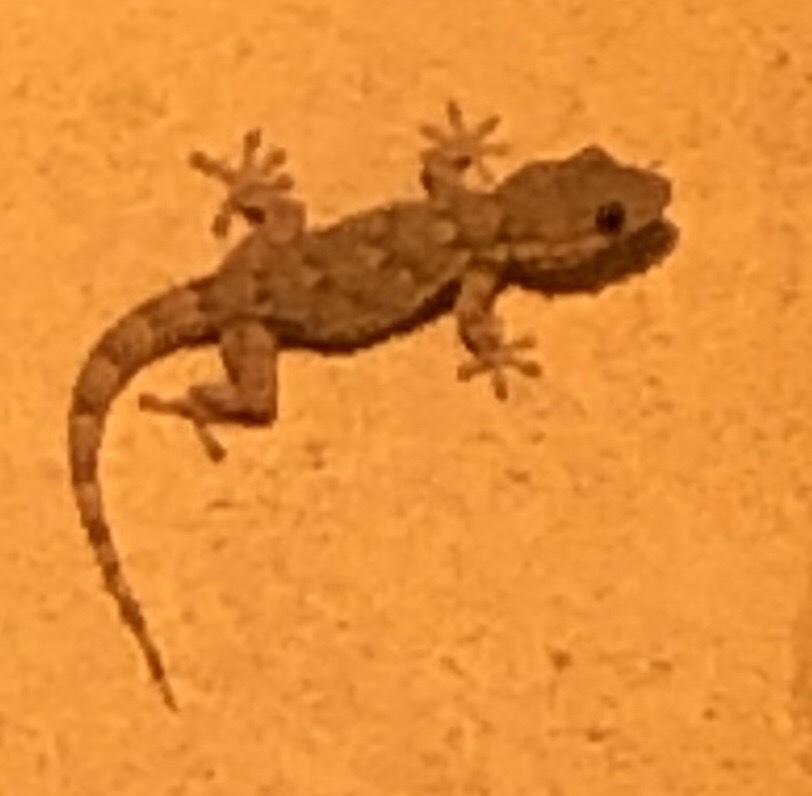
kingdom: Animalia
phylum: Chordata
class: Squamata
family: Phyllodactylidae
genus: Tarentola
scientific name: Tarentola mauritanica
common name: Moorish gecko
